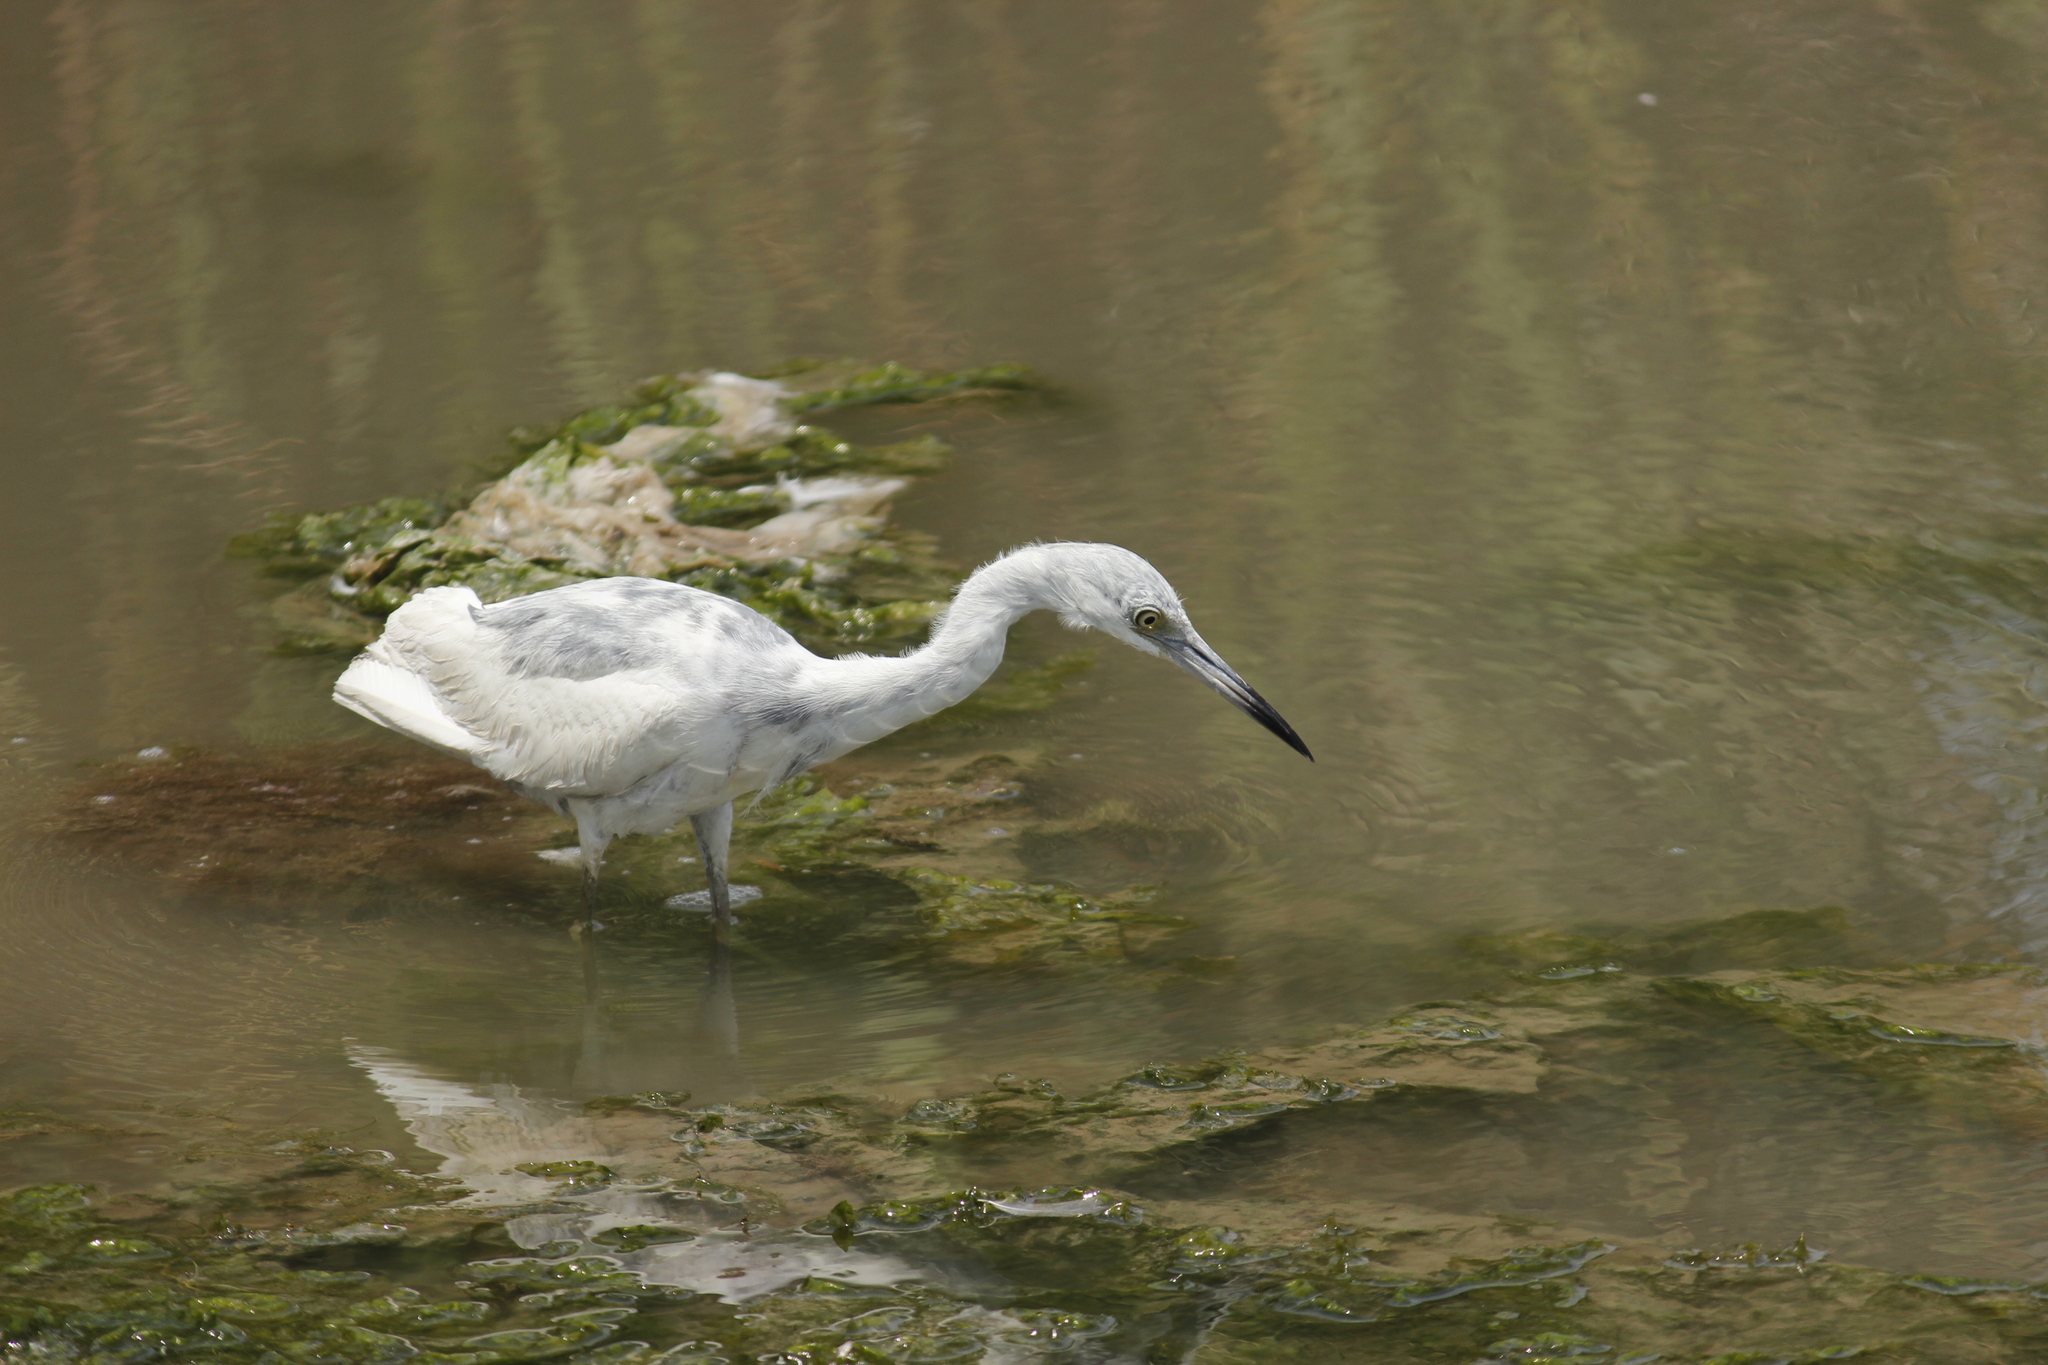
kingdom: Animalia
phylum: Chordata
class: Aves
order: Pelecaniformes
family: Ardeidae
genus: Egretta
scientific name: Egretta caerulea
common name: Little blue heron
